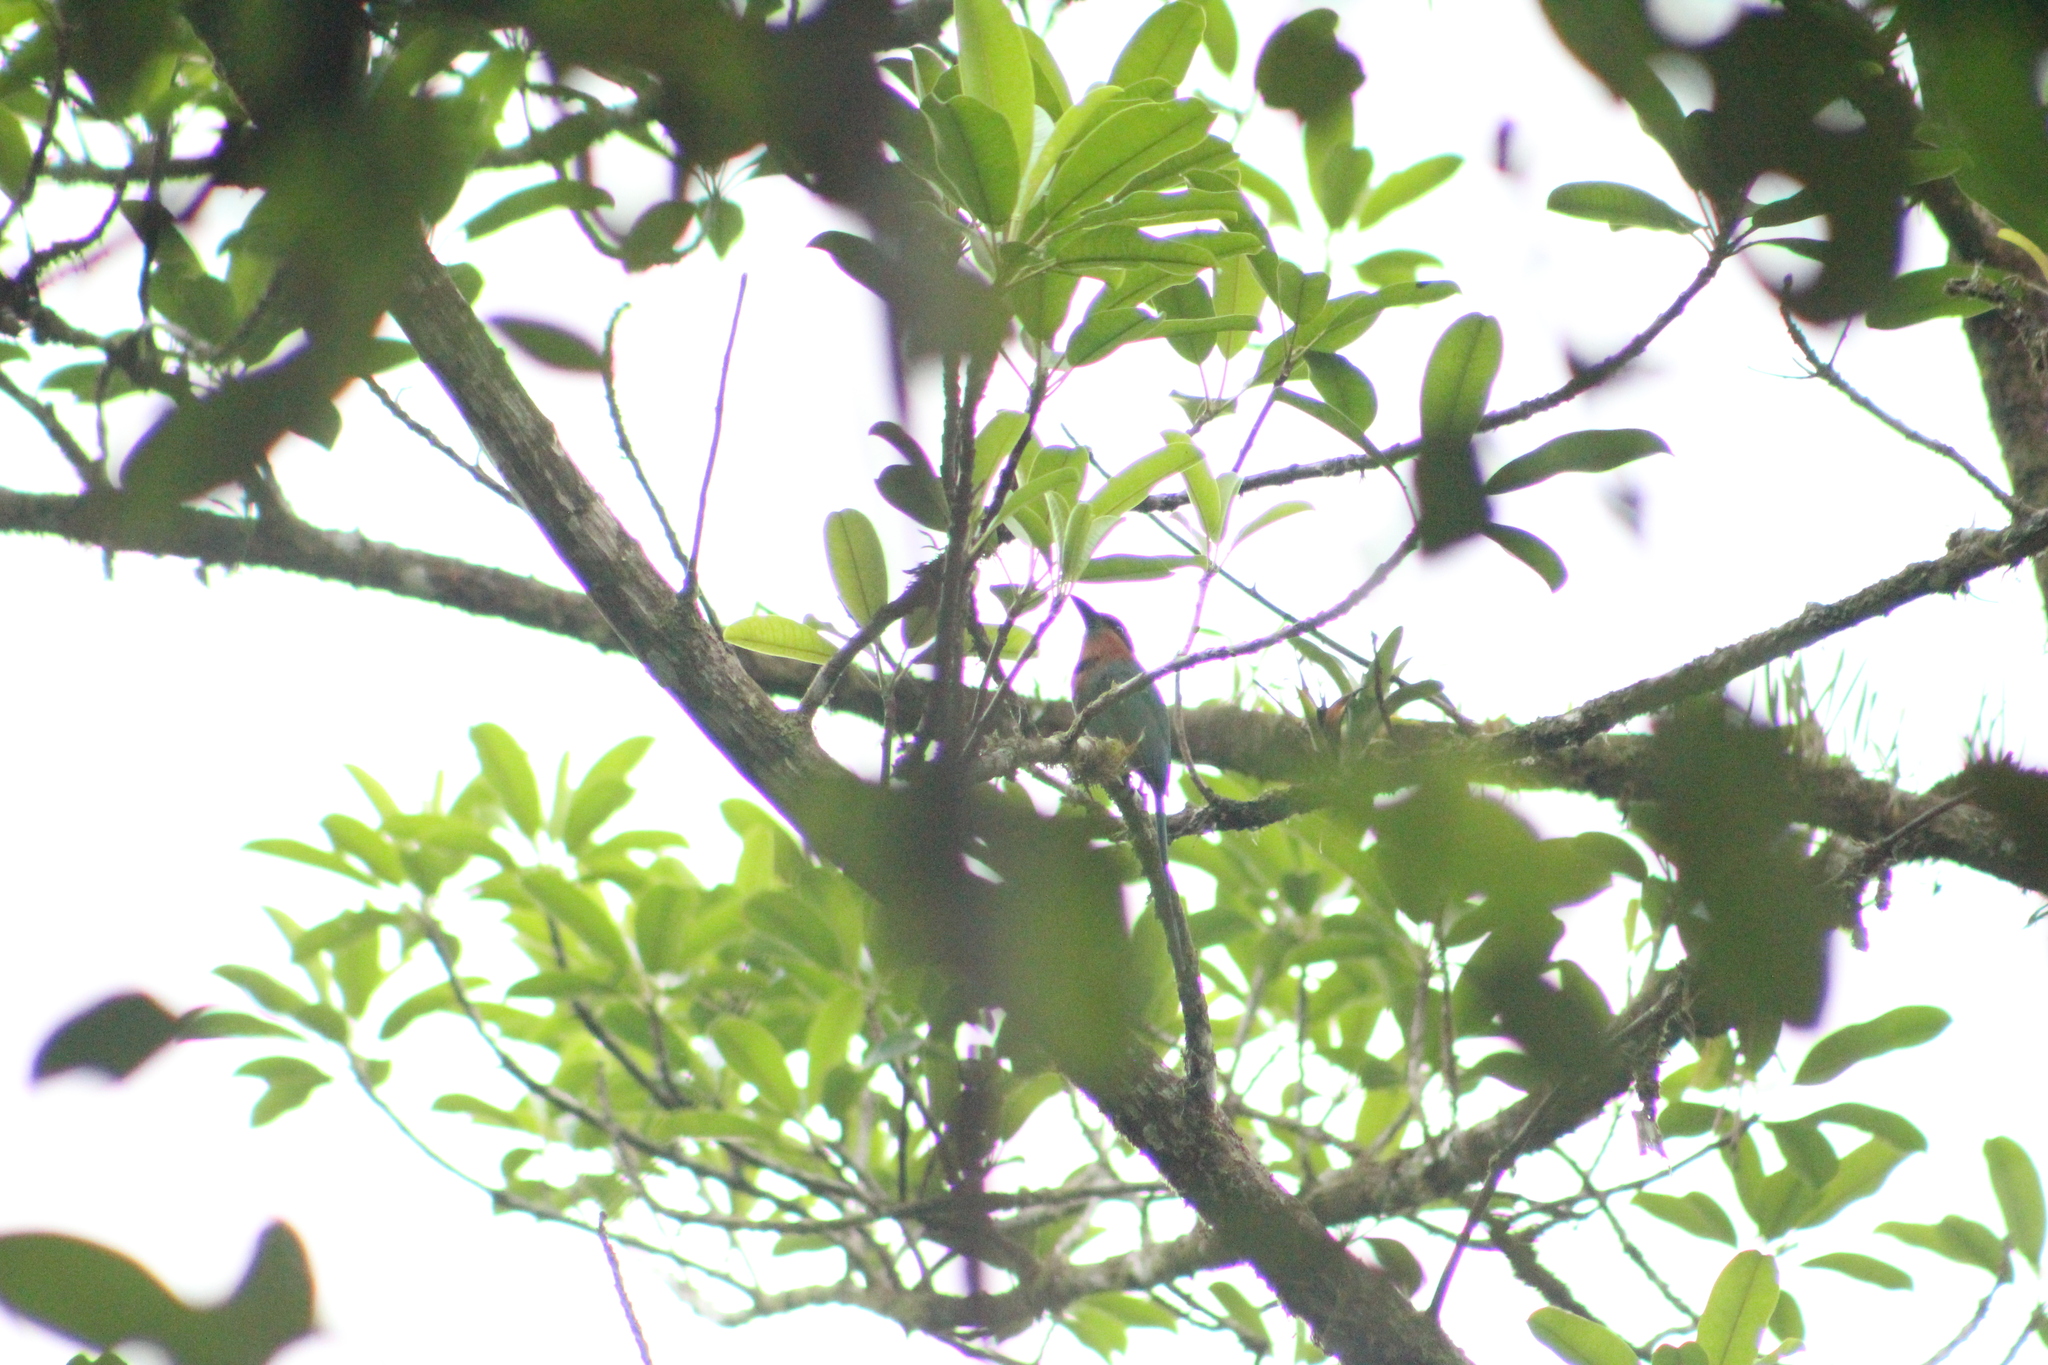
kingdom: Animalia
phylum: Chordata
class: Aves
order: Coraciiformes
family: Momotidae
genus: Electron
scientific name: Electron platyrhynchum
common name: Broad-billed motmot
